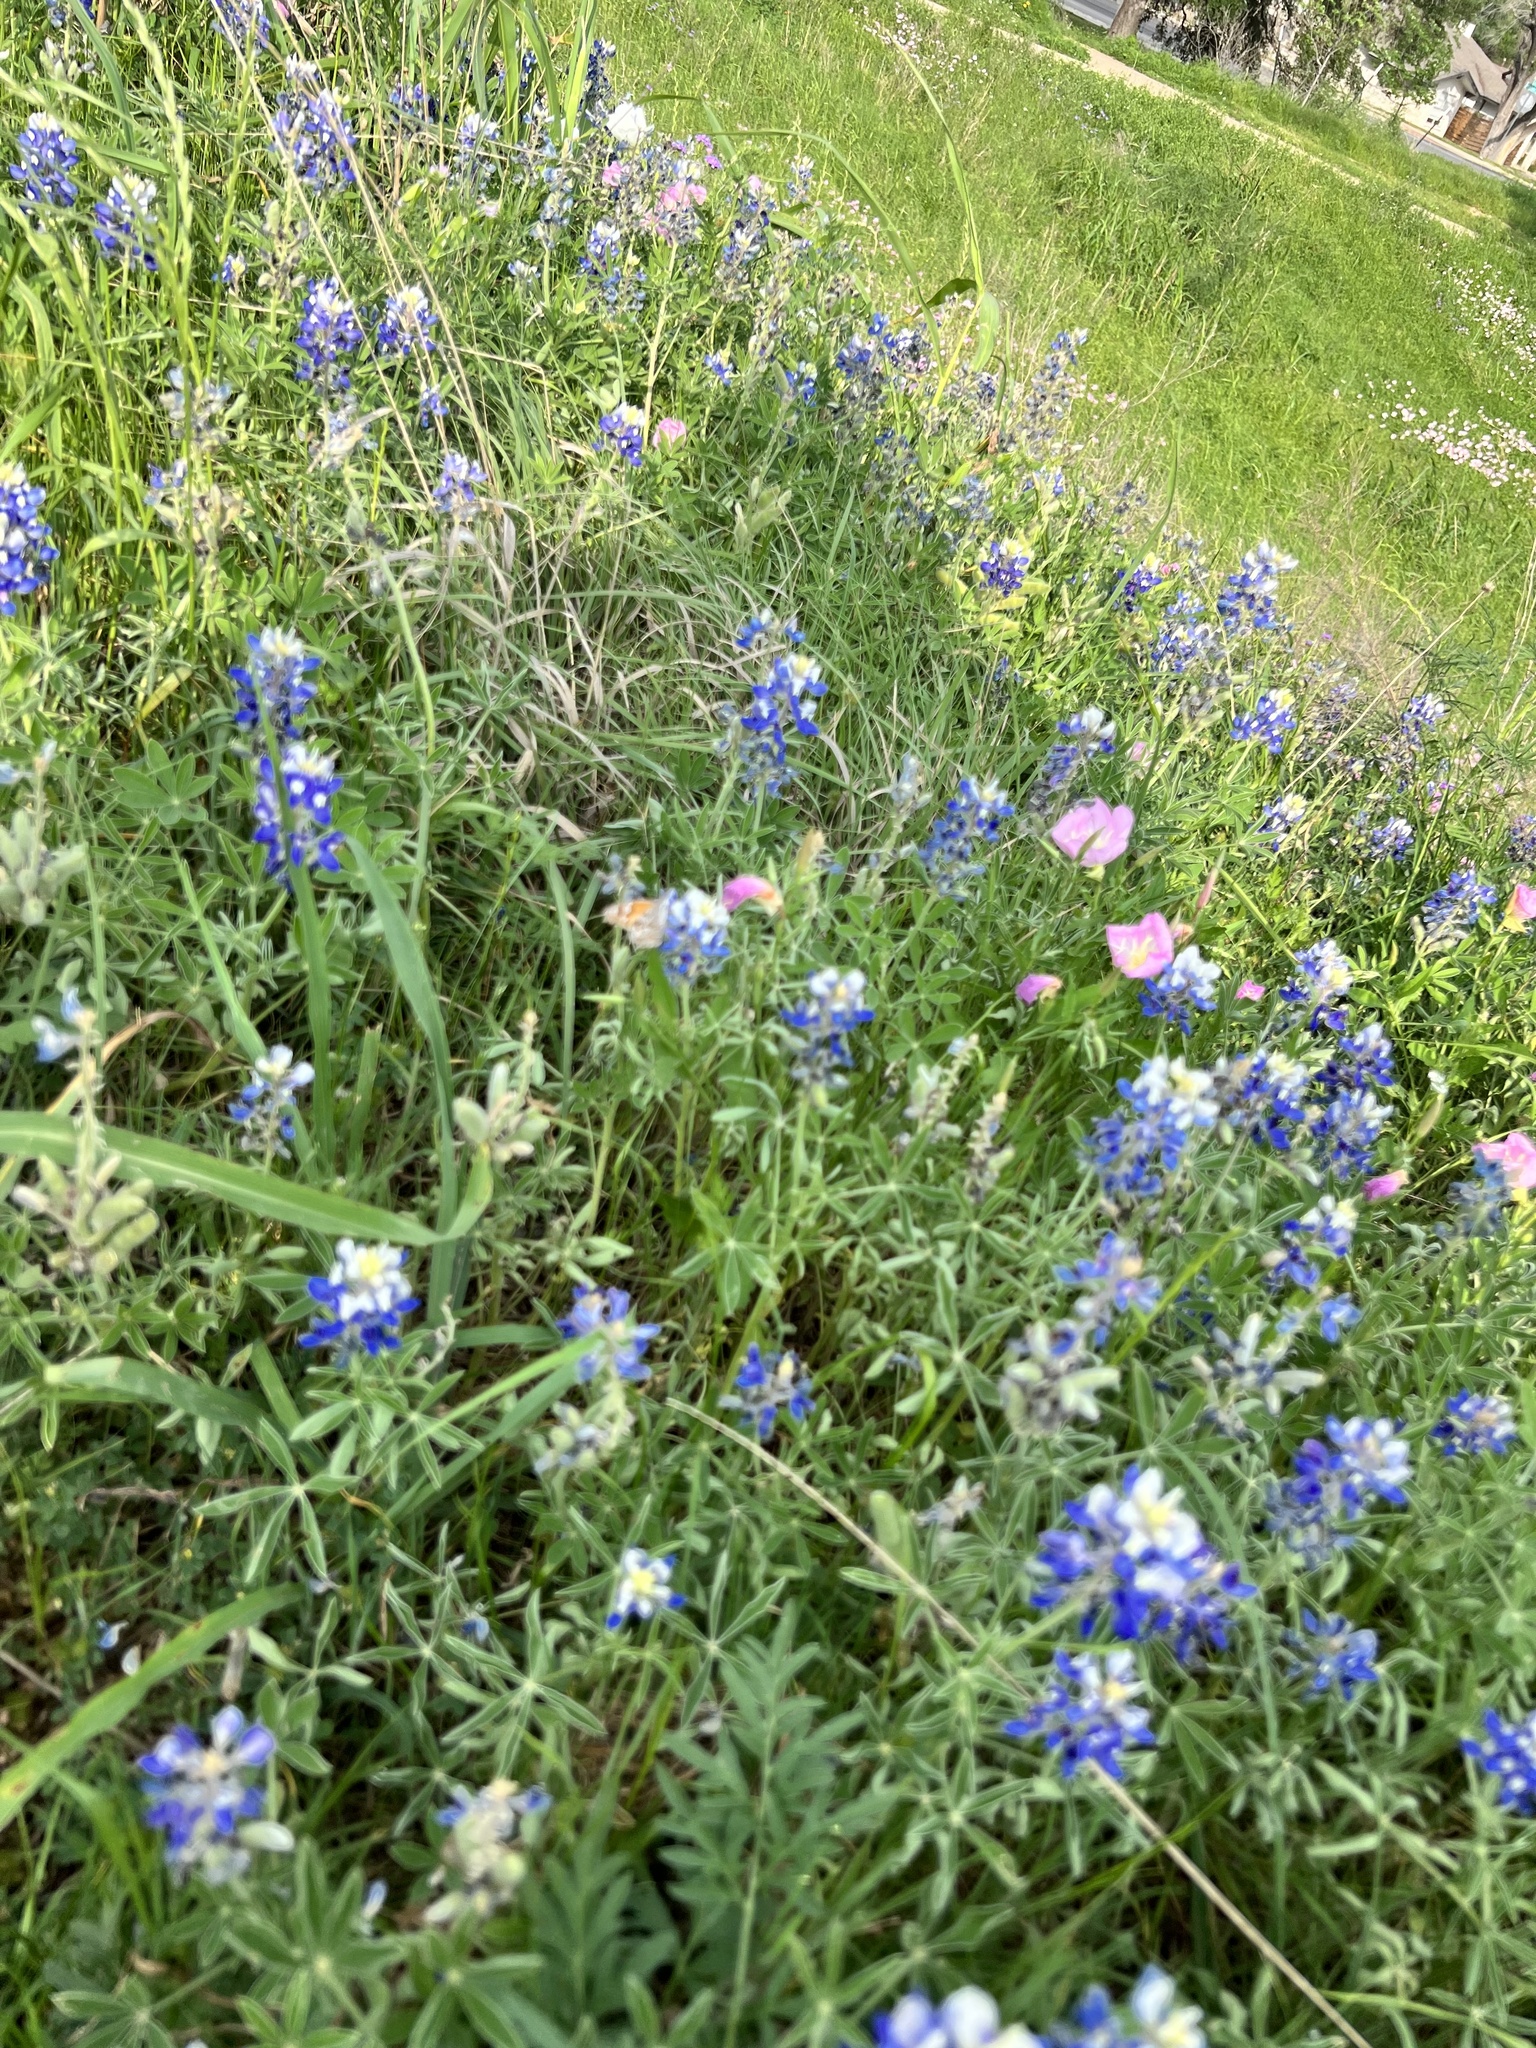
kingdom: Animalia
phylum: Arthropoda
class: Insecta
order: Lepidoptera
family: Nymphalidae
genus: Libytheana
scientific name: Libytheana carinenta
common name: American snout
